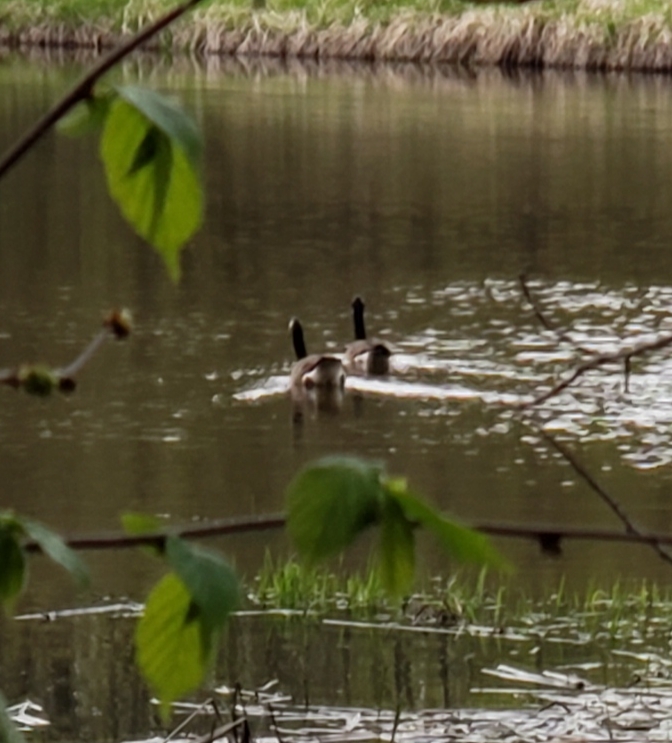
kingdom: Animalia
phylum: Chordata
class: Aves
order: Anseriformes
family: Anatidae
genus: Branta
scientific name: Branta canadensis
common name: Canada goose
